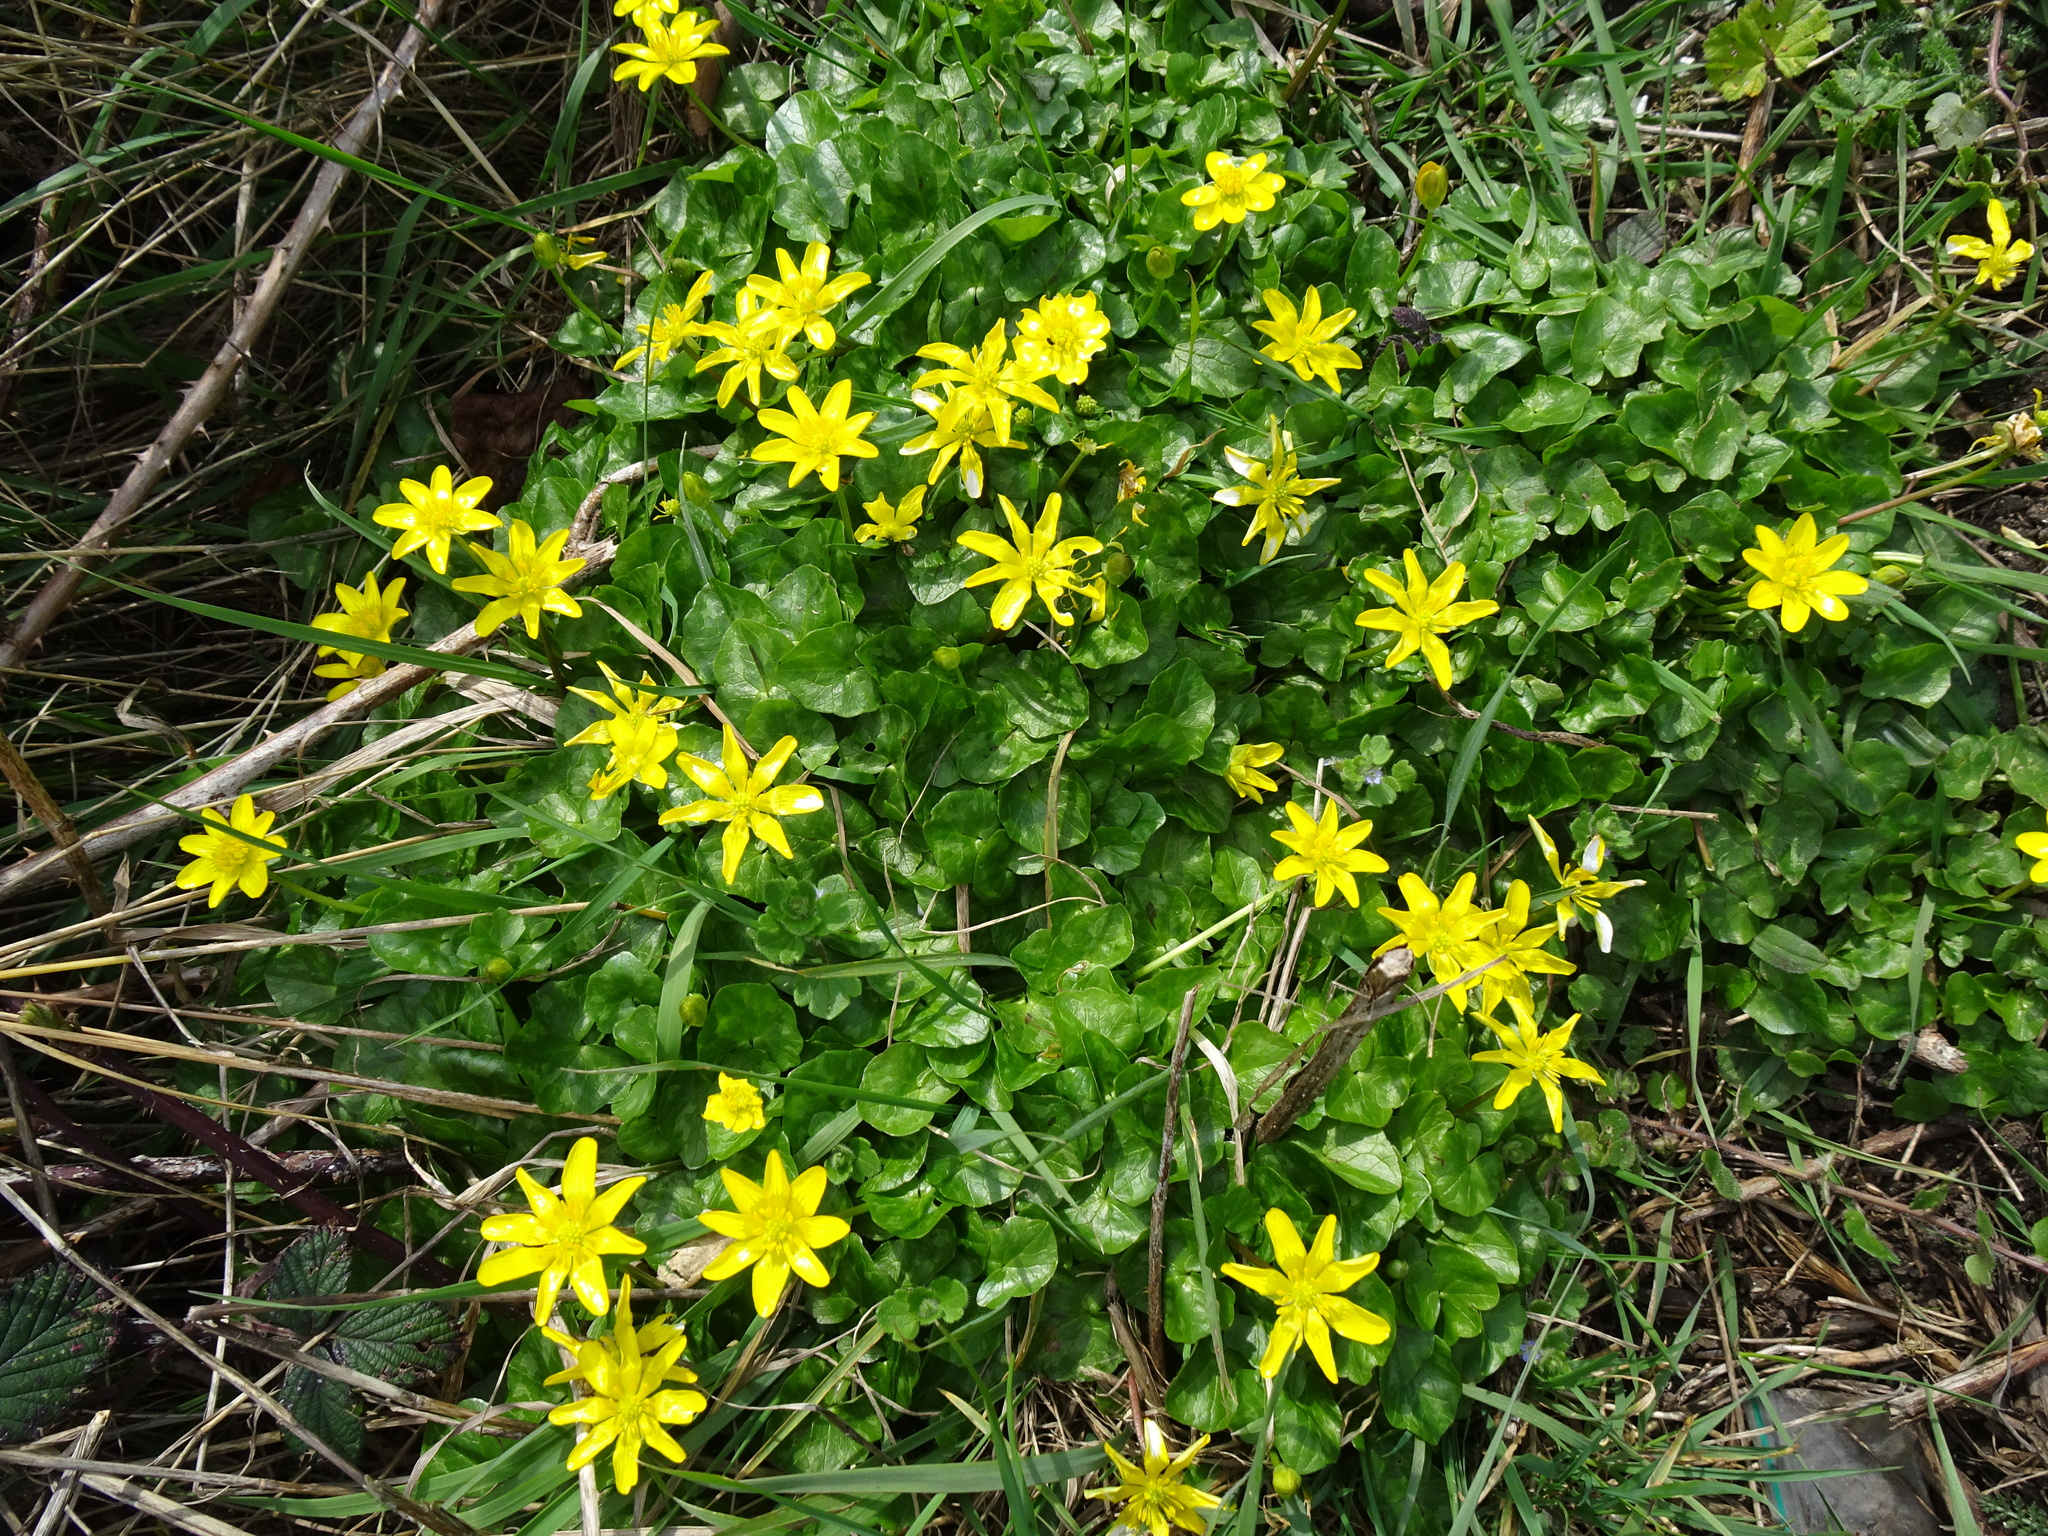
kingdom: Plantae
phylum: Tracheophyta
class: Magnoliopsida
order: Ranunculales
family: Ranunculaceae
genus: Ficaria
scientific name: Ficaria verna
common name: Lesser celandine
